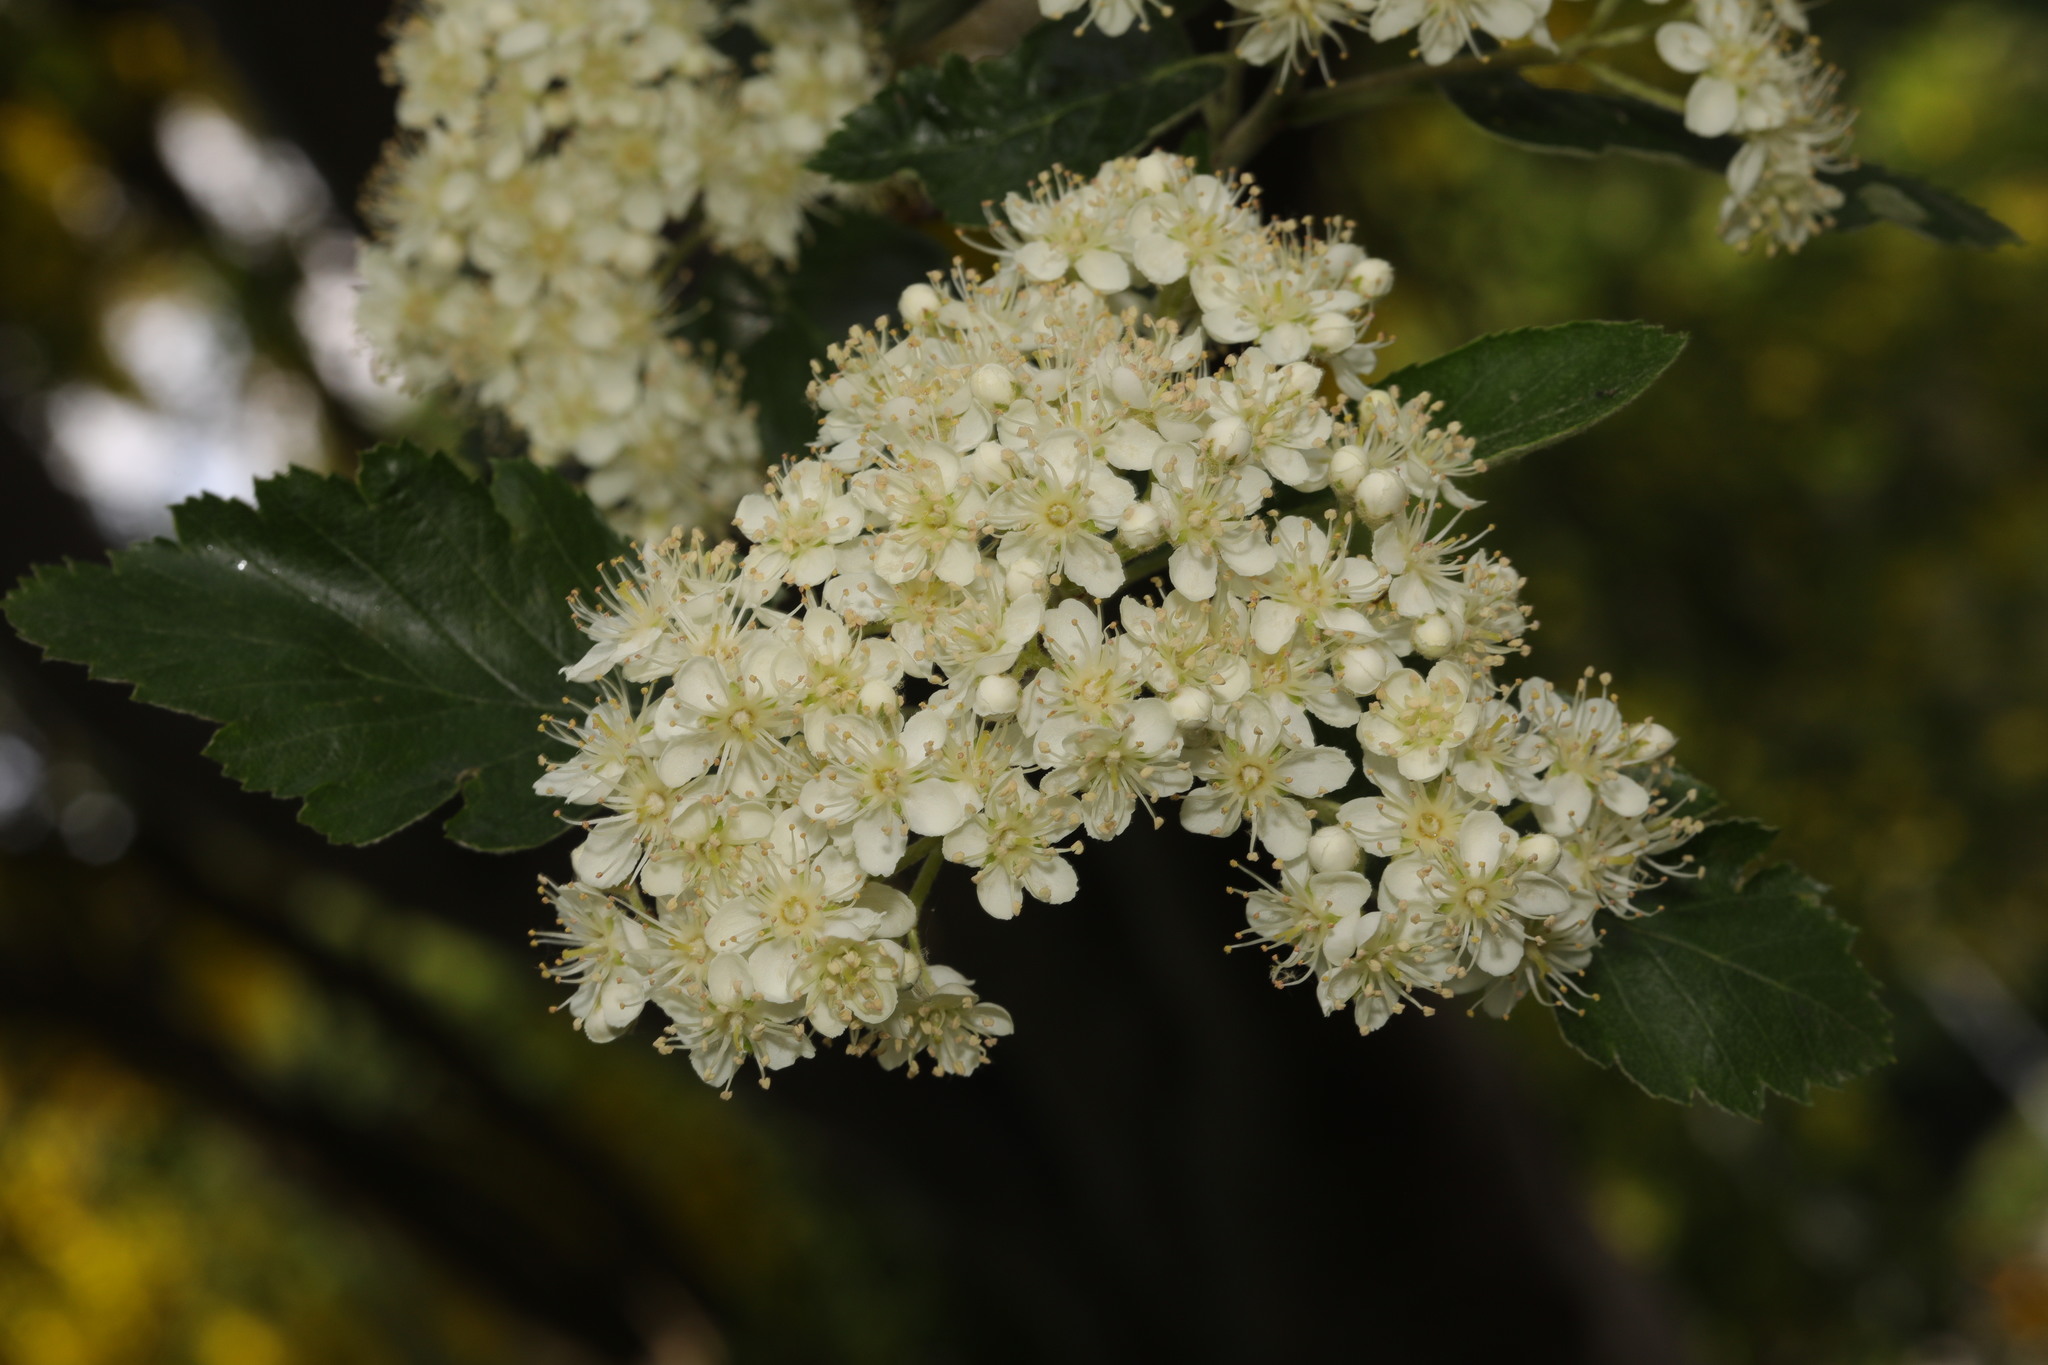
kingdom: Plantae
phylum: Tracheophyta
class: Magnoliopsida
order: Rosales
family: Rosaceae
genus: Scandosorbus
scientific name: Scandosorbus intermedia
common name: Swedish whitebeam
